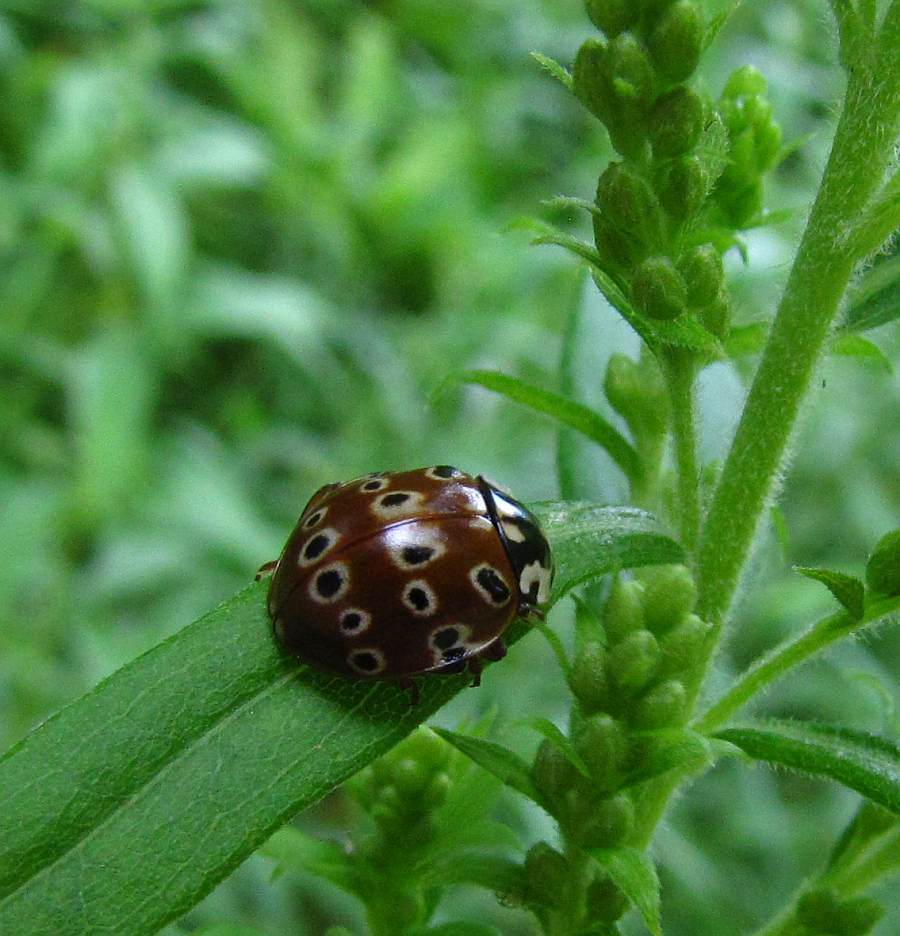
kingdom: Animalia
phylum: Arthropoda
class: Insecta
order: Coleoptera
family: Coccinellidae
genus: Anatis
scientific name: Anatis mali
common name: Eye-spotted lady beetle
